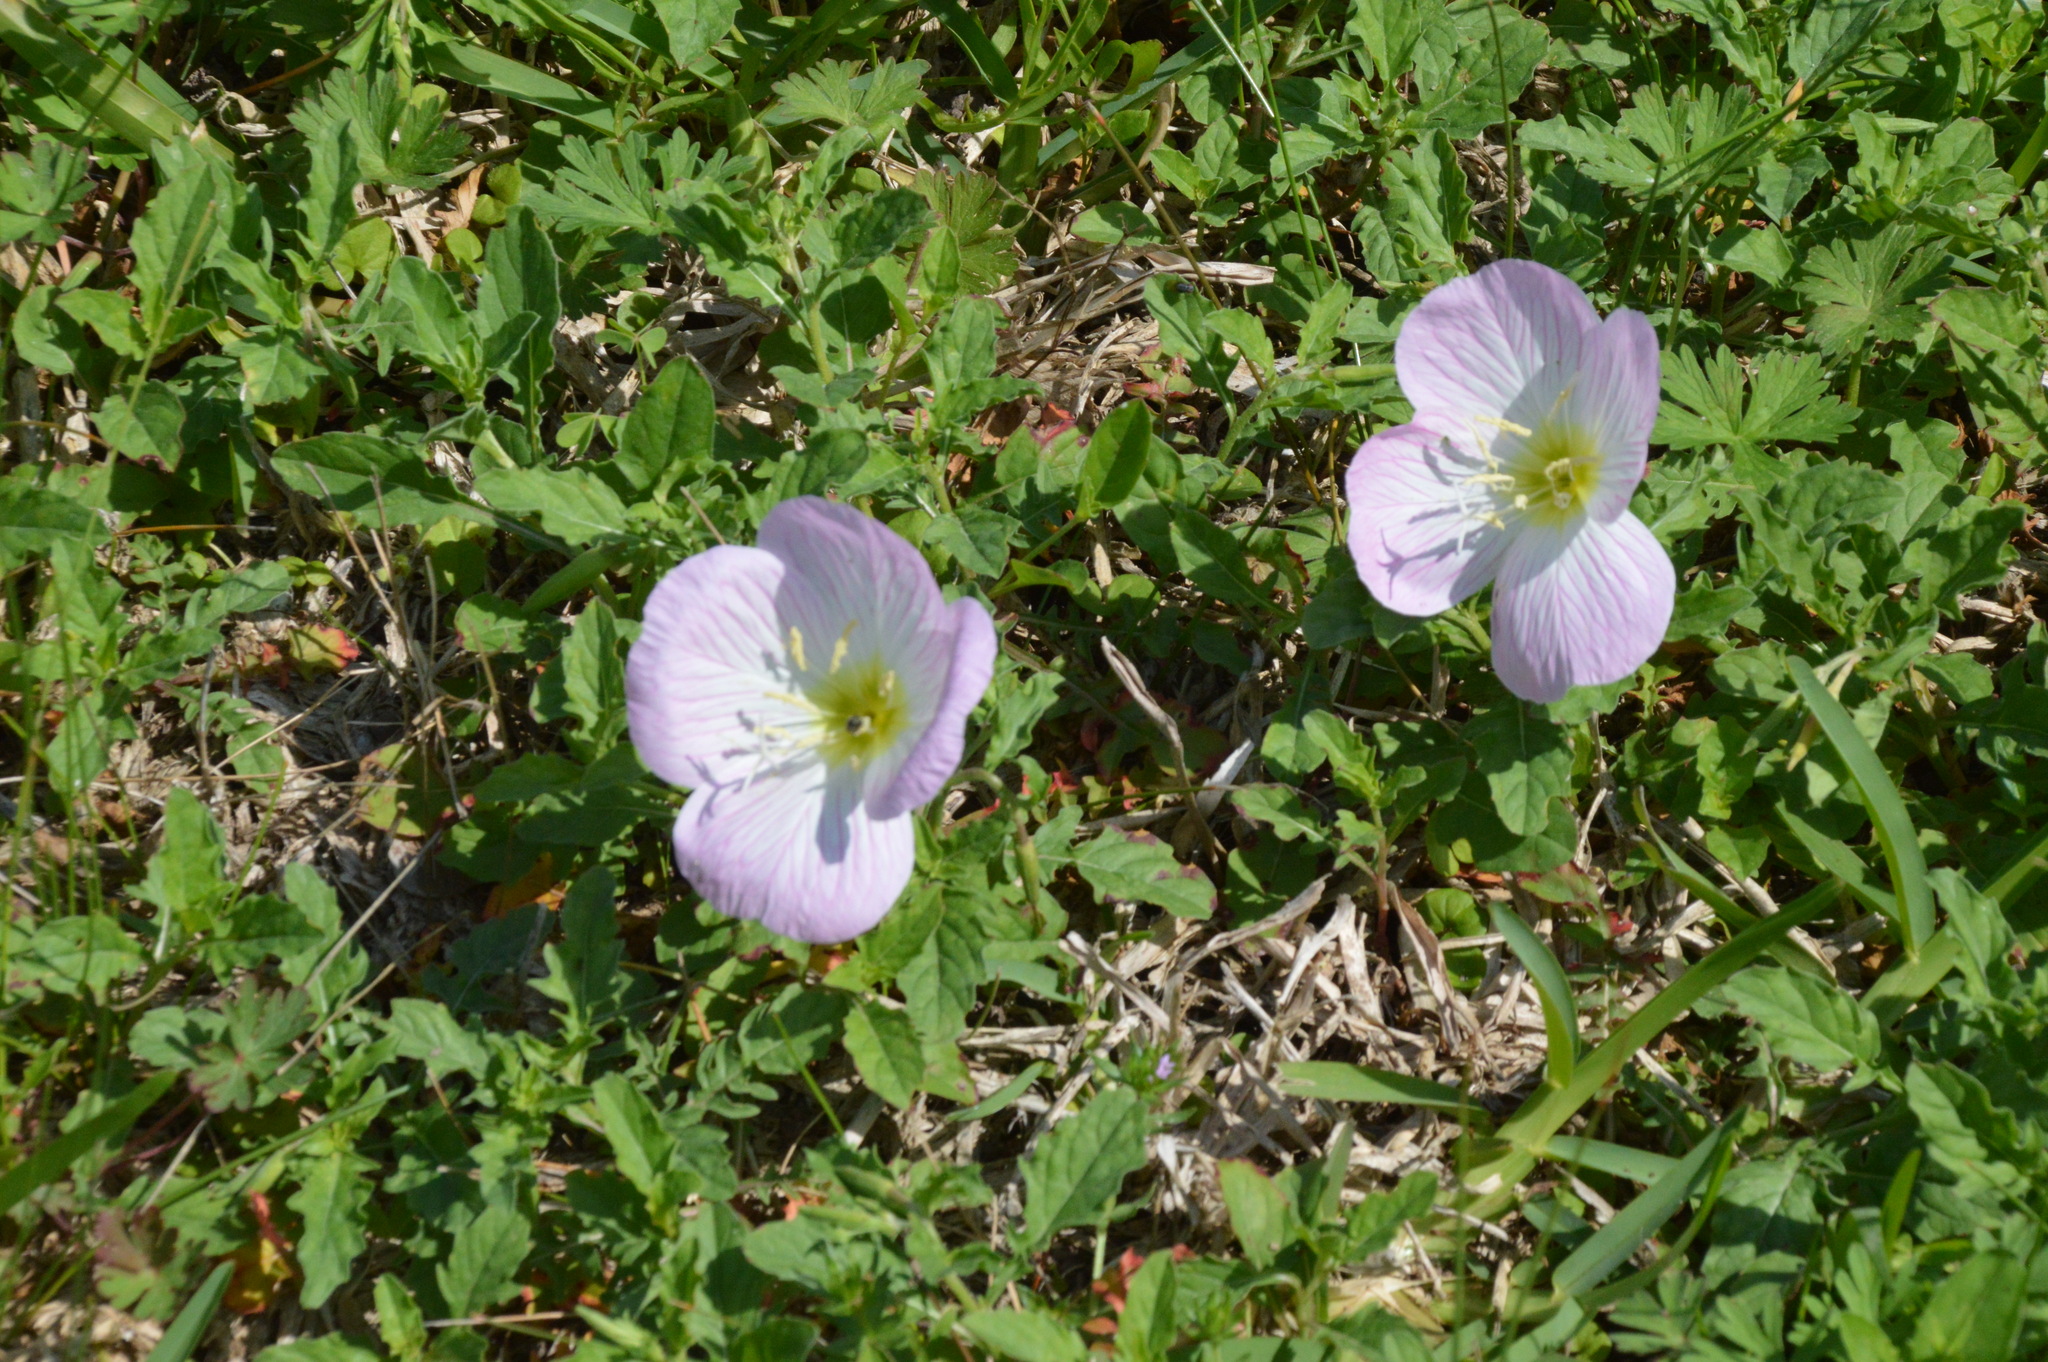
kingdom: Plantae
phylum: Tracheophyta
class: Magnoliopsida
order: Myrtales
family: Onagraceae
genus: Oenothera
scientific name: Oenothera speciosa
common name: White evening-primrose
